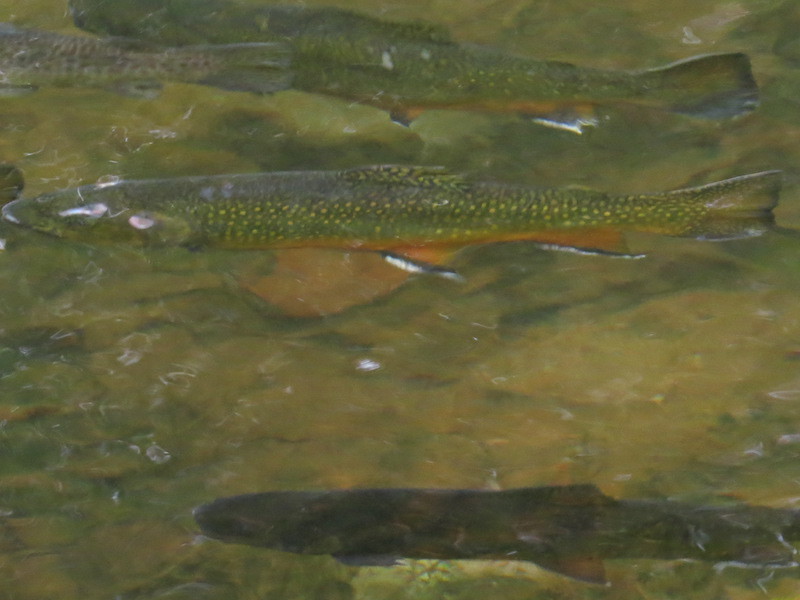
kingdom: Animalia
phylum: Chordata
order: Salmoniformes
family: Salmonidae
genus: Salvelinus
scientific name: Salvelinus fontinalis
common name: Brook trout
